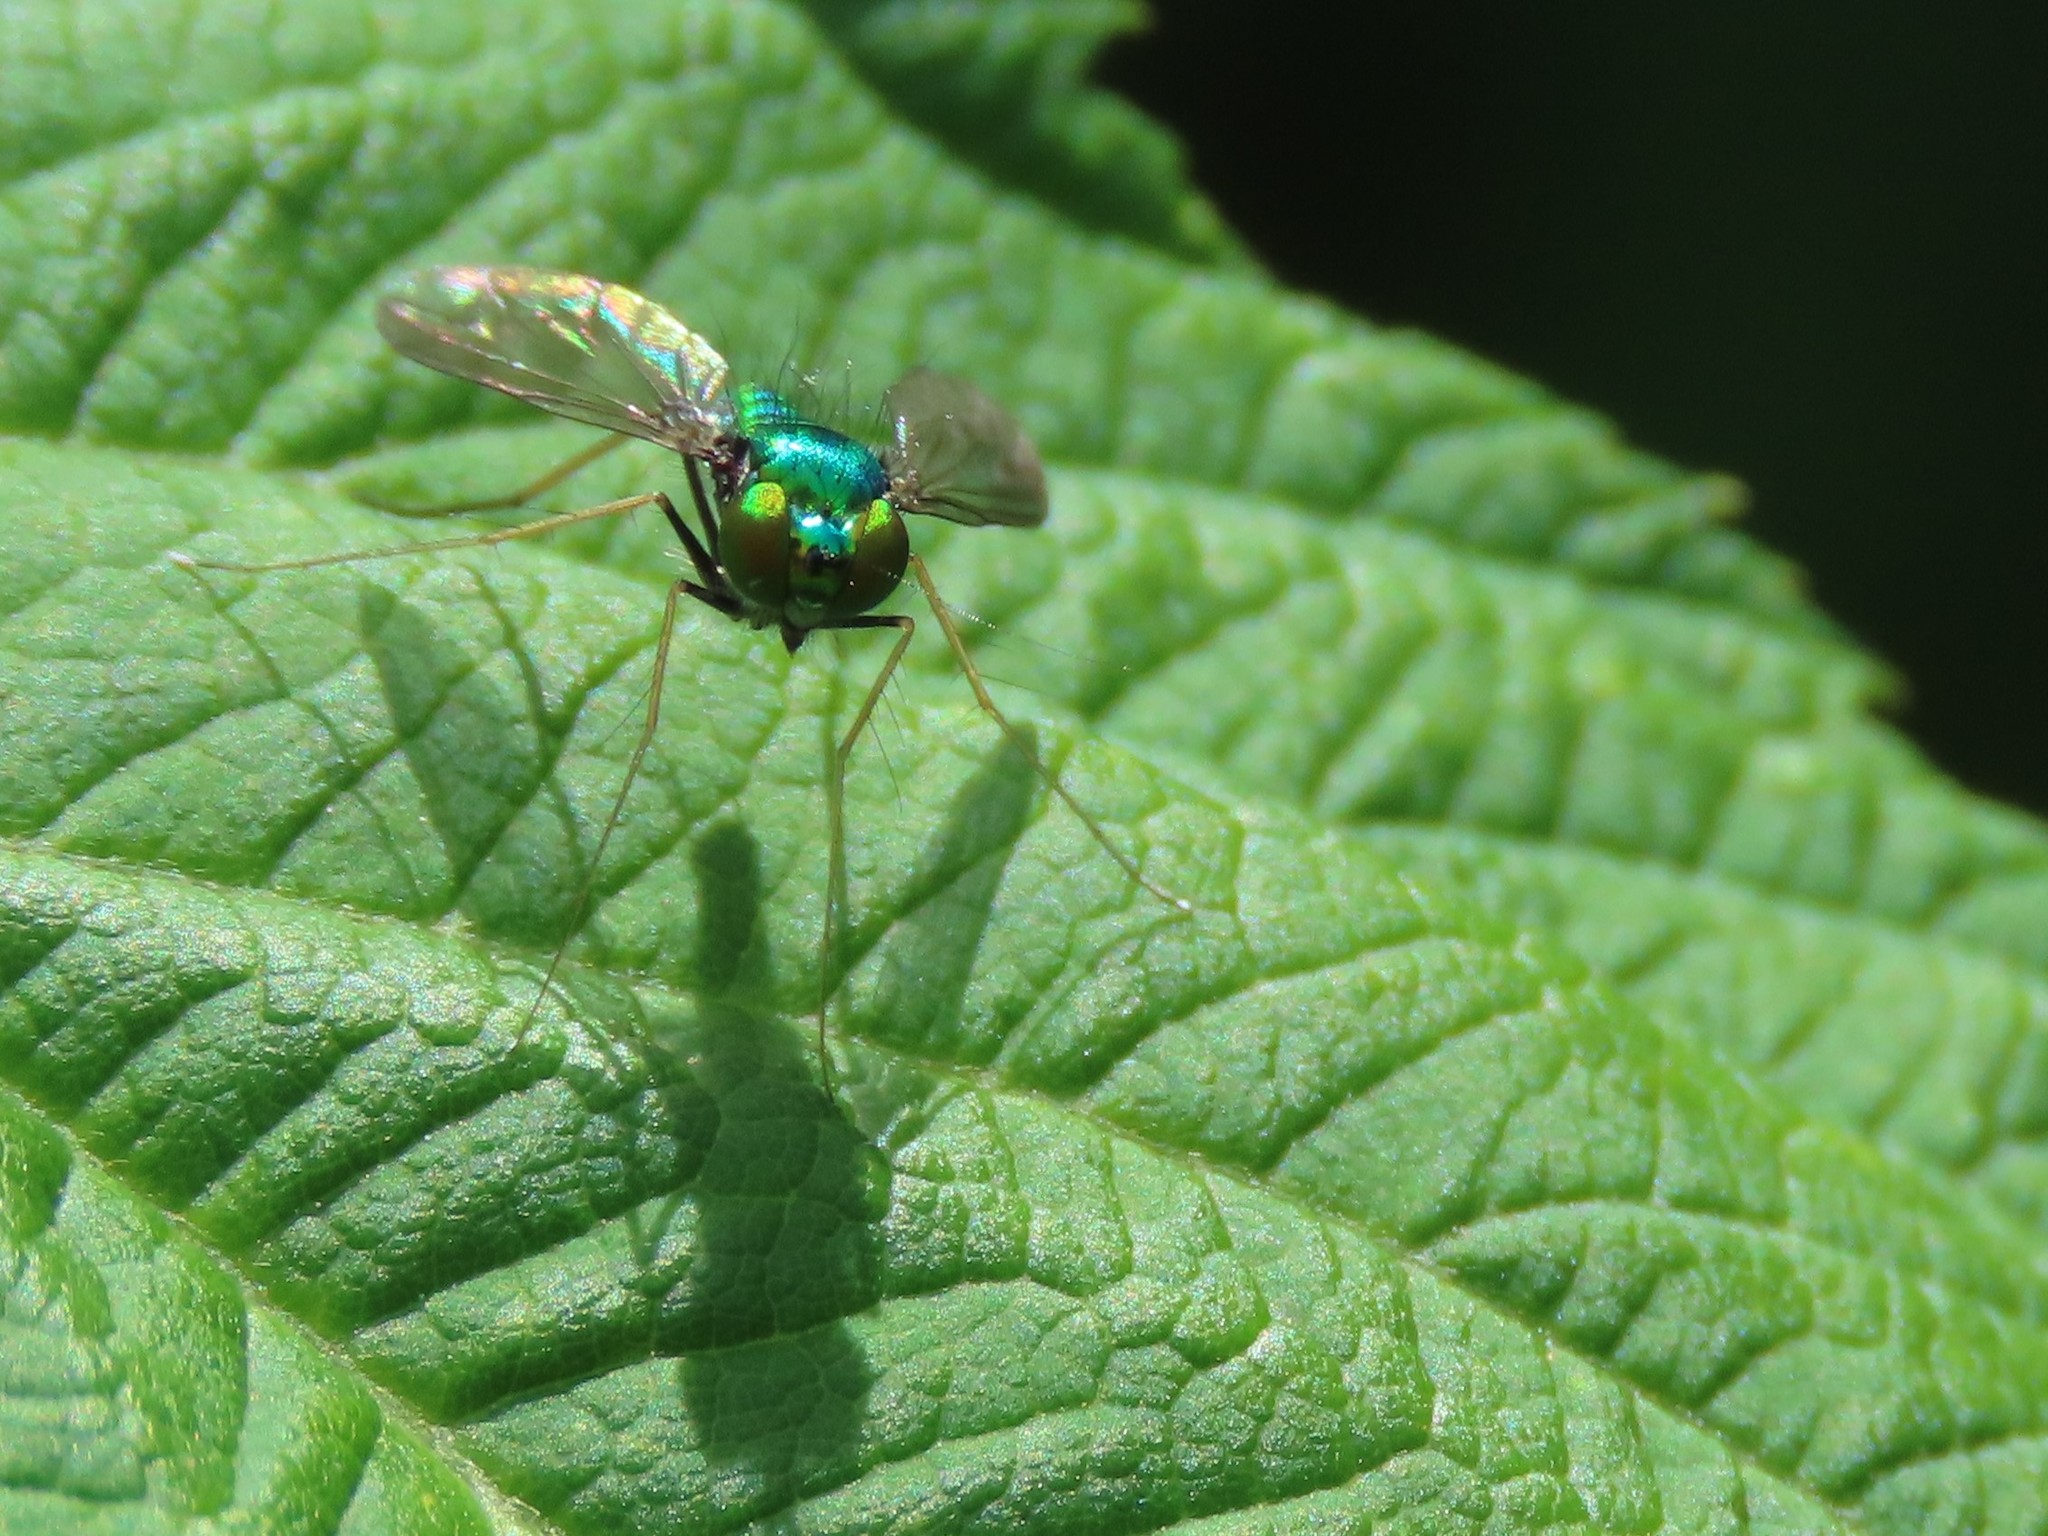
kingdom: Animalia
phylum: Arthropoda
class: Insecta
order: Diptera
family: Dolichopodidae
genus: Condylostylus
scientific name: Condylostylus comatus
